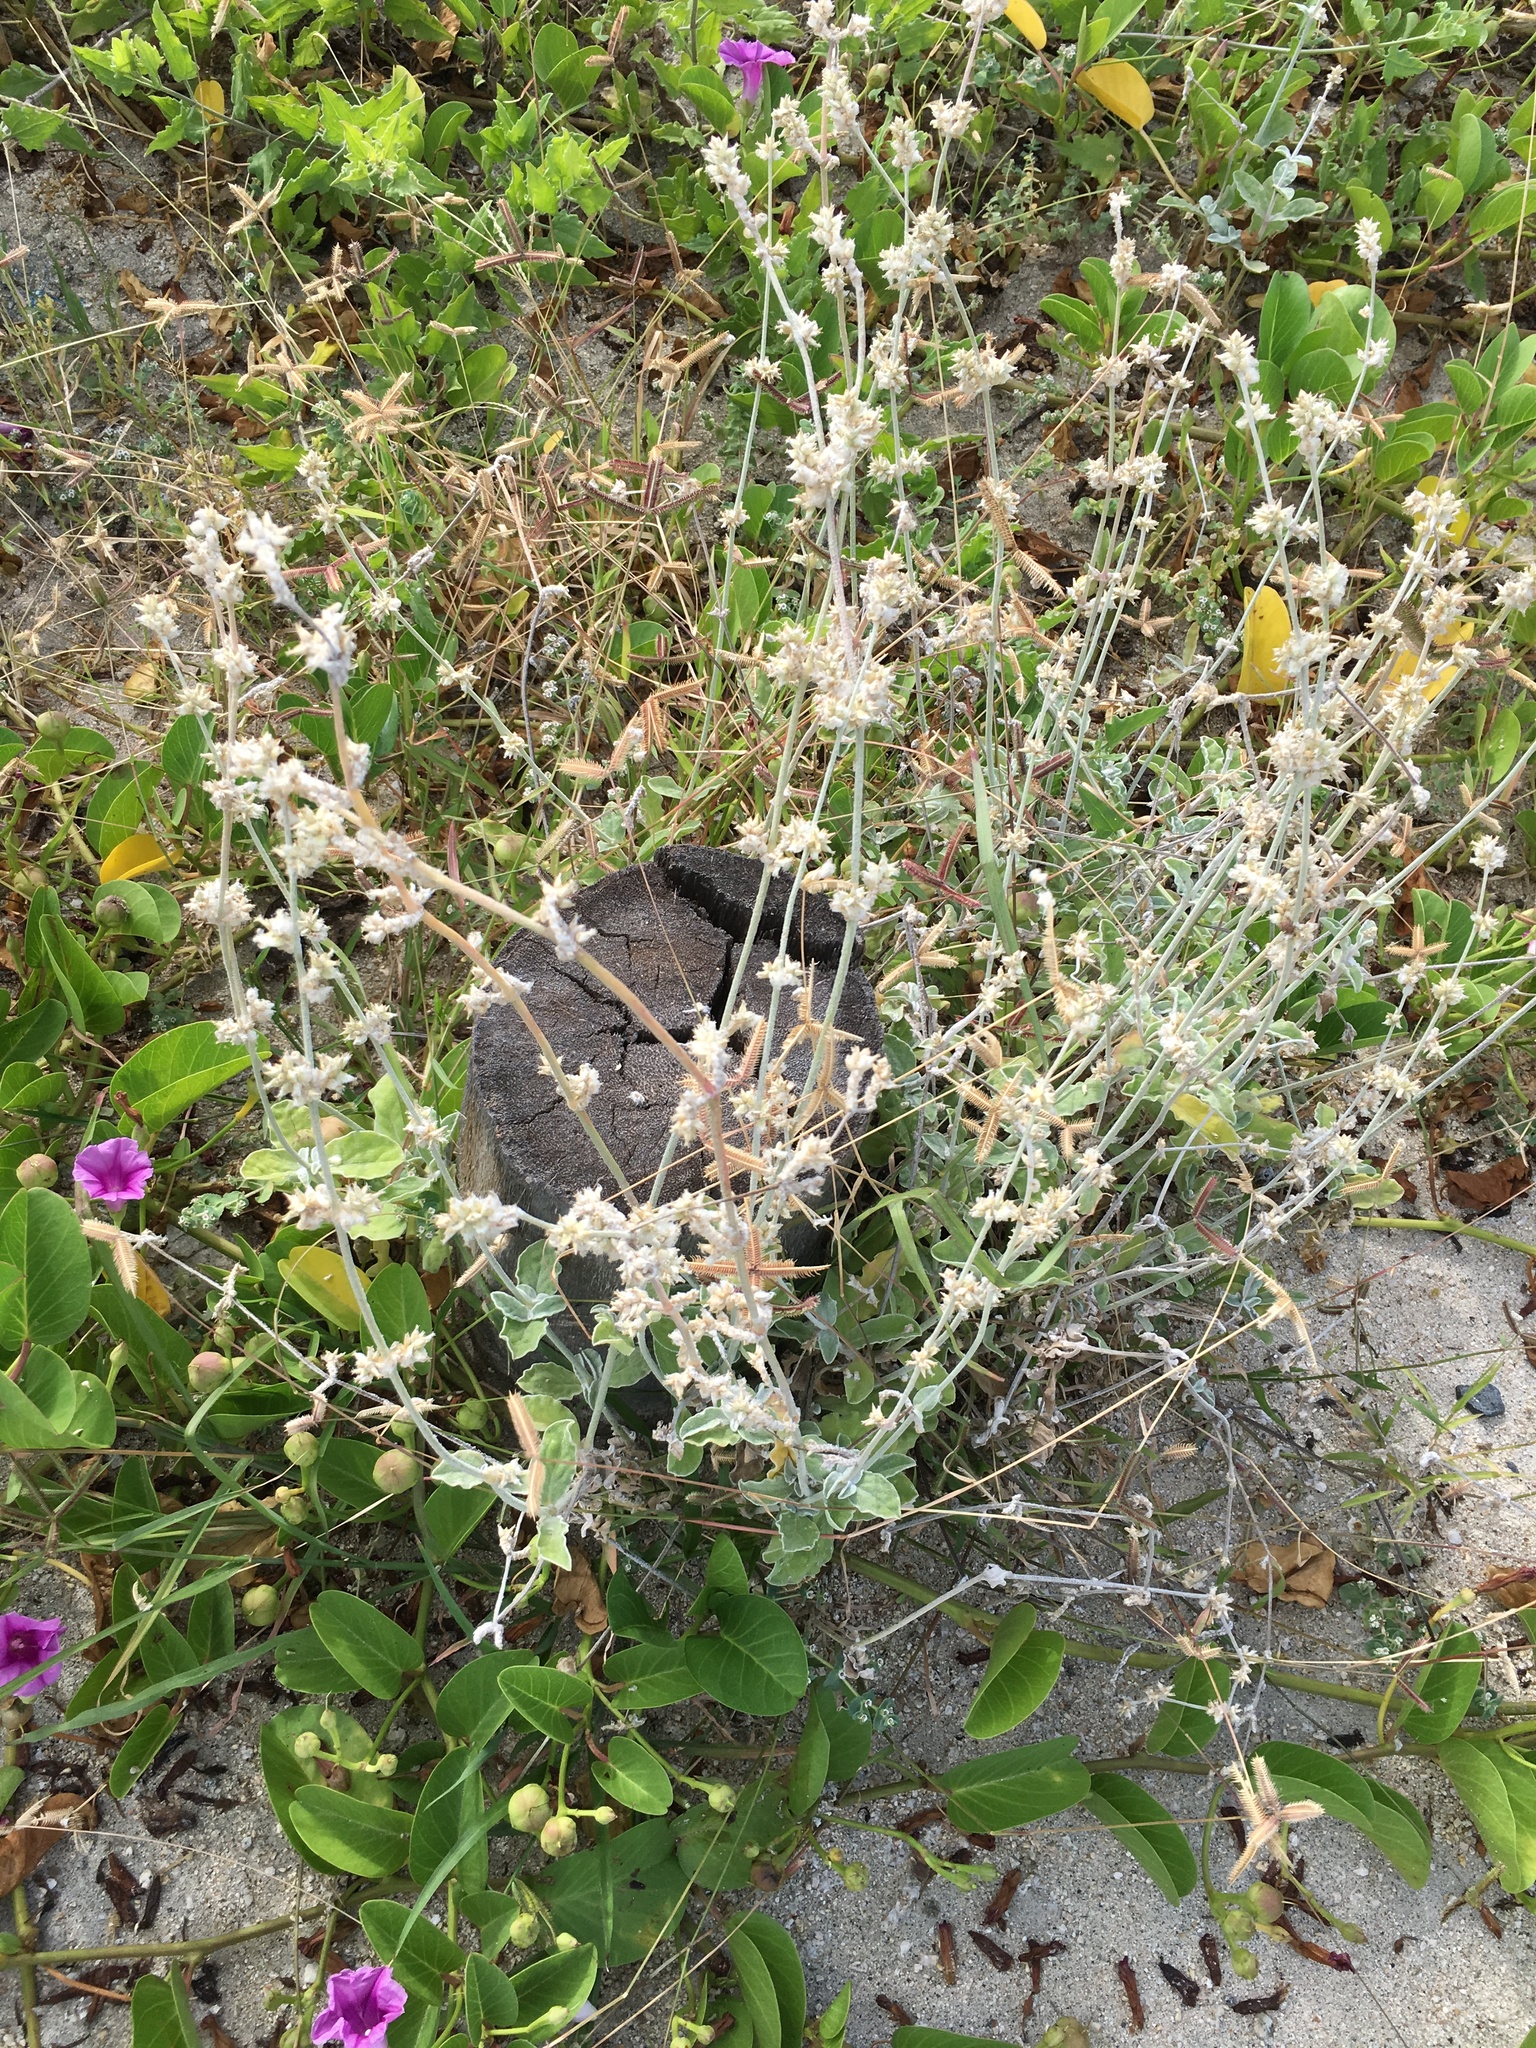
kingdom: Plantae
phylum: Tracheophyta
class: Magnoliopsida
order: Caryophyllales
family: Amaranthaceae
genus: Froelichia
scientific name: Froelichia xantusii
